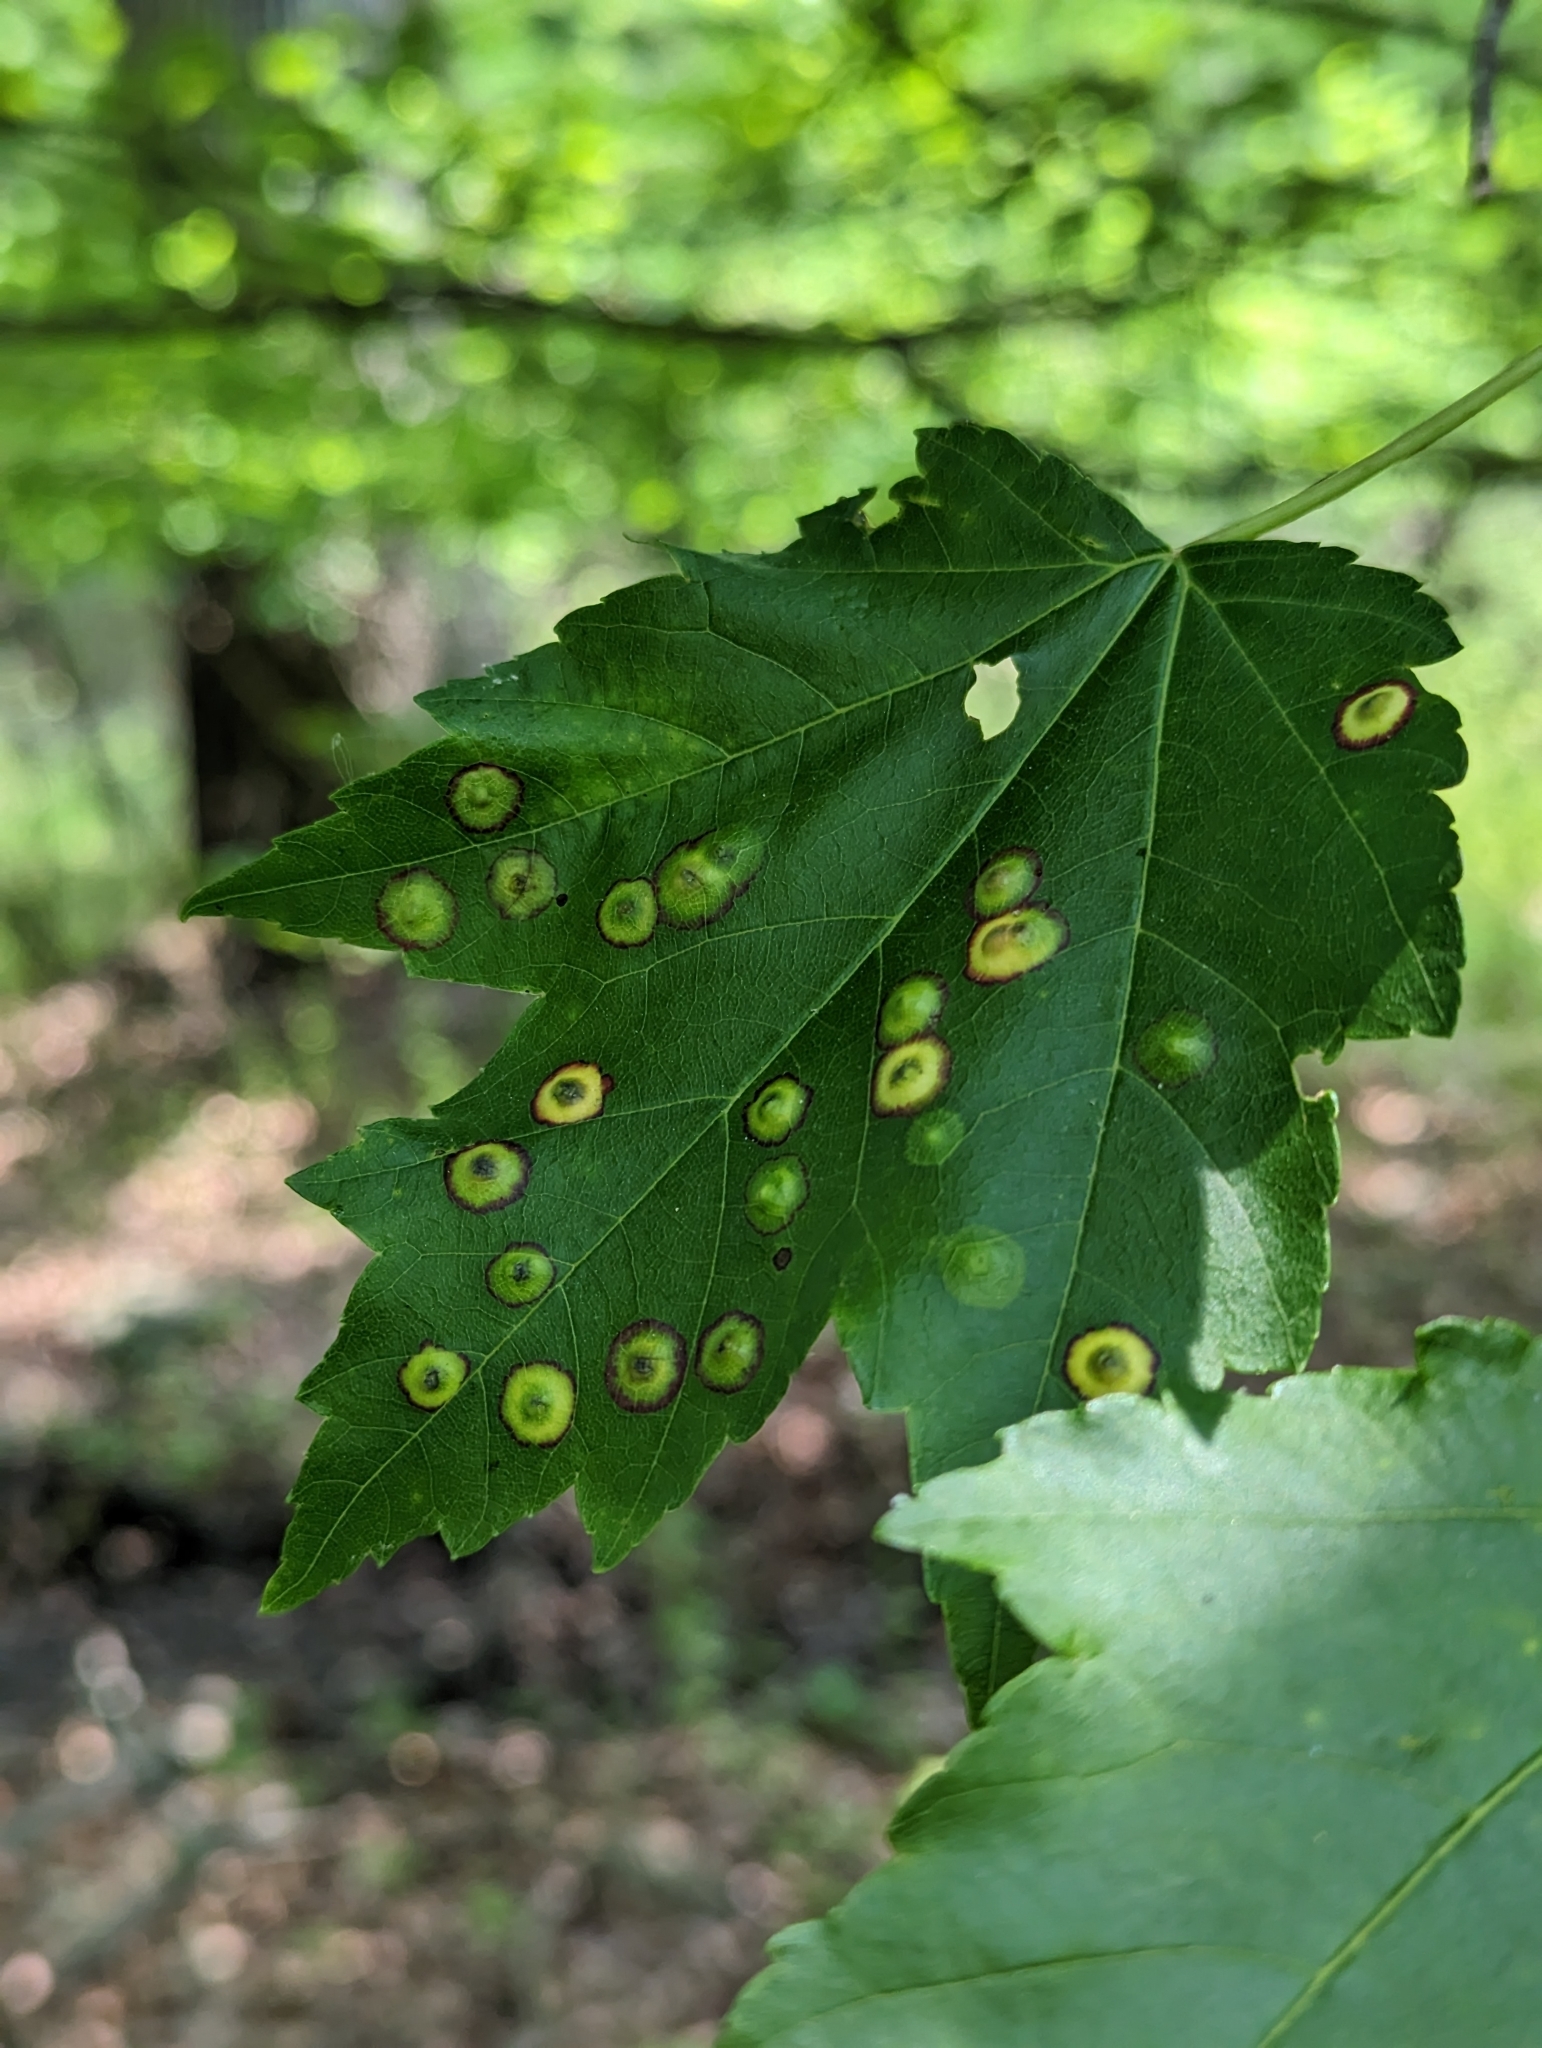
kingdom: Animalia
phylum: Arthropoda
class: Insecta
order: Diptera
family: Cecidomyiidae
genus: Acericecis
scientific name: Acericecis ocellaris
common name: Ocellate gall midge
